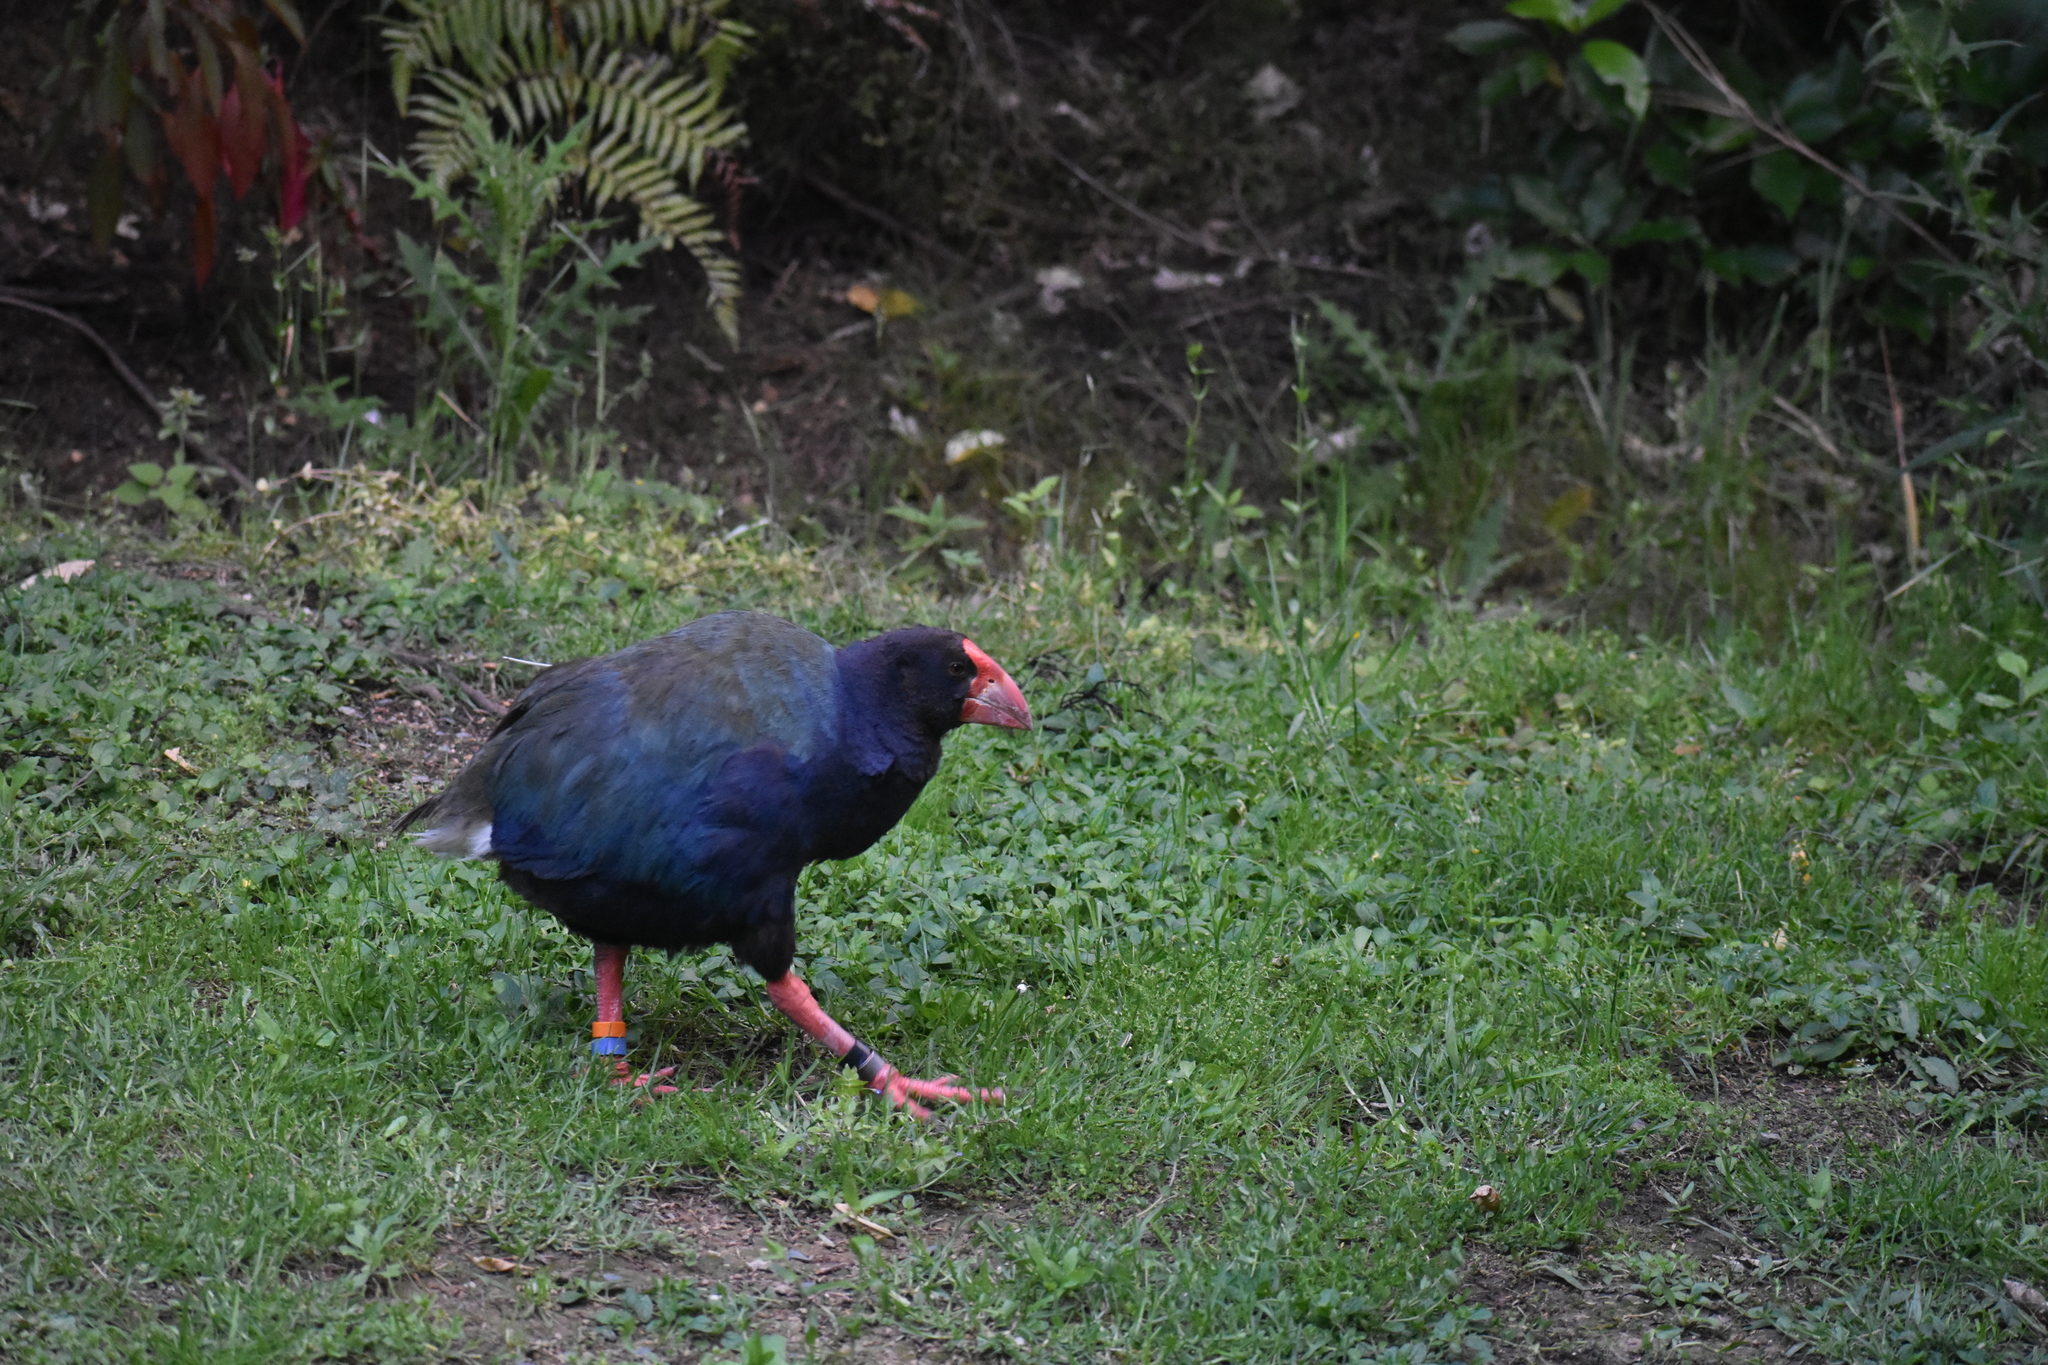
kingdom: Animalia
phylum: Chordata
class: Aves
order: Gruiformes
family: Rallidae
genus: Porphyrio
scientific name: Porphyrio hochstetteri
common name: South island takahe
